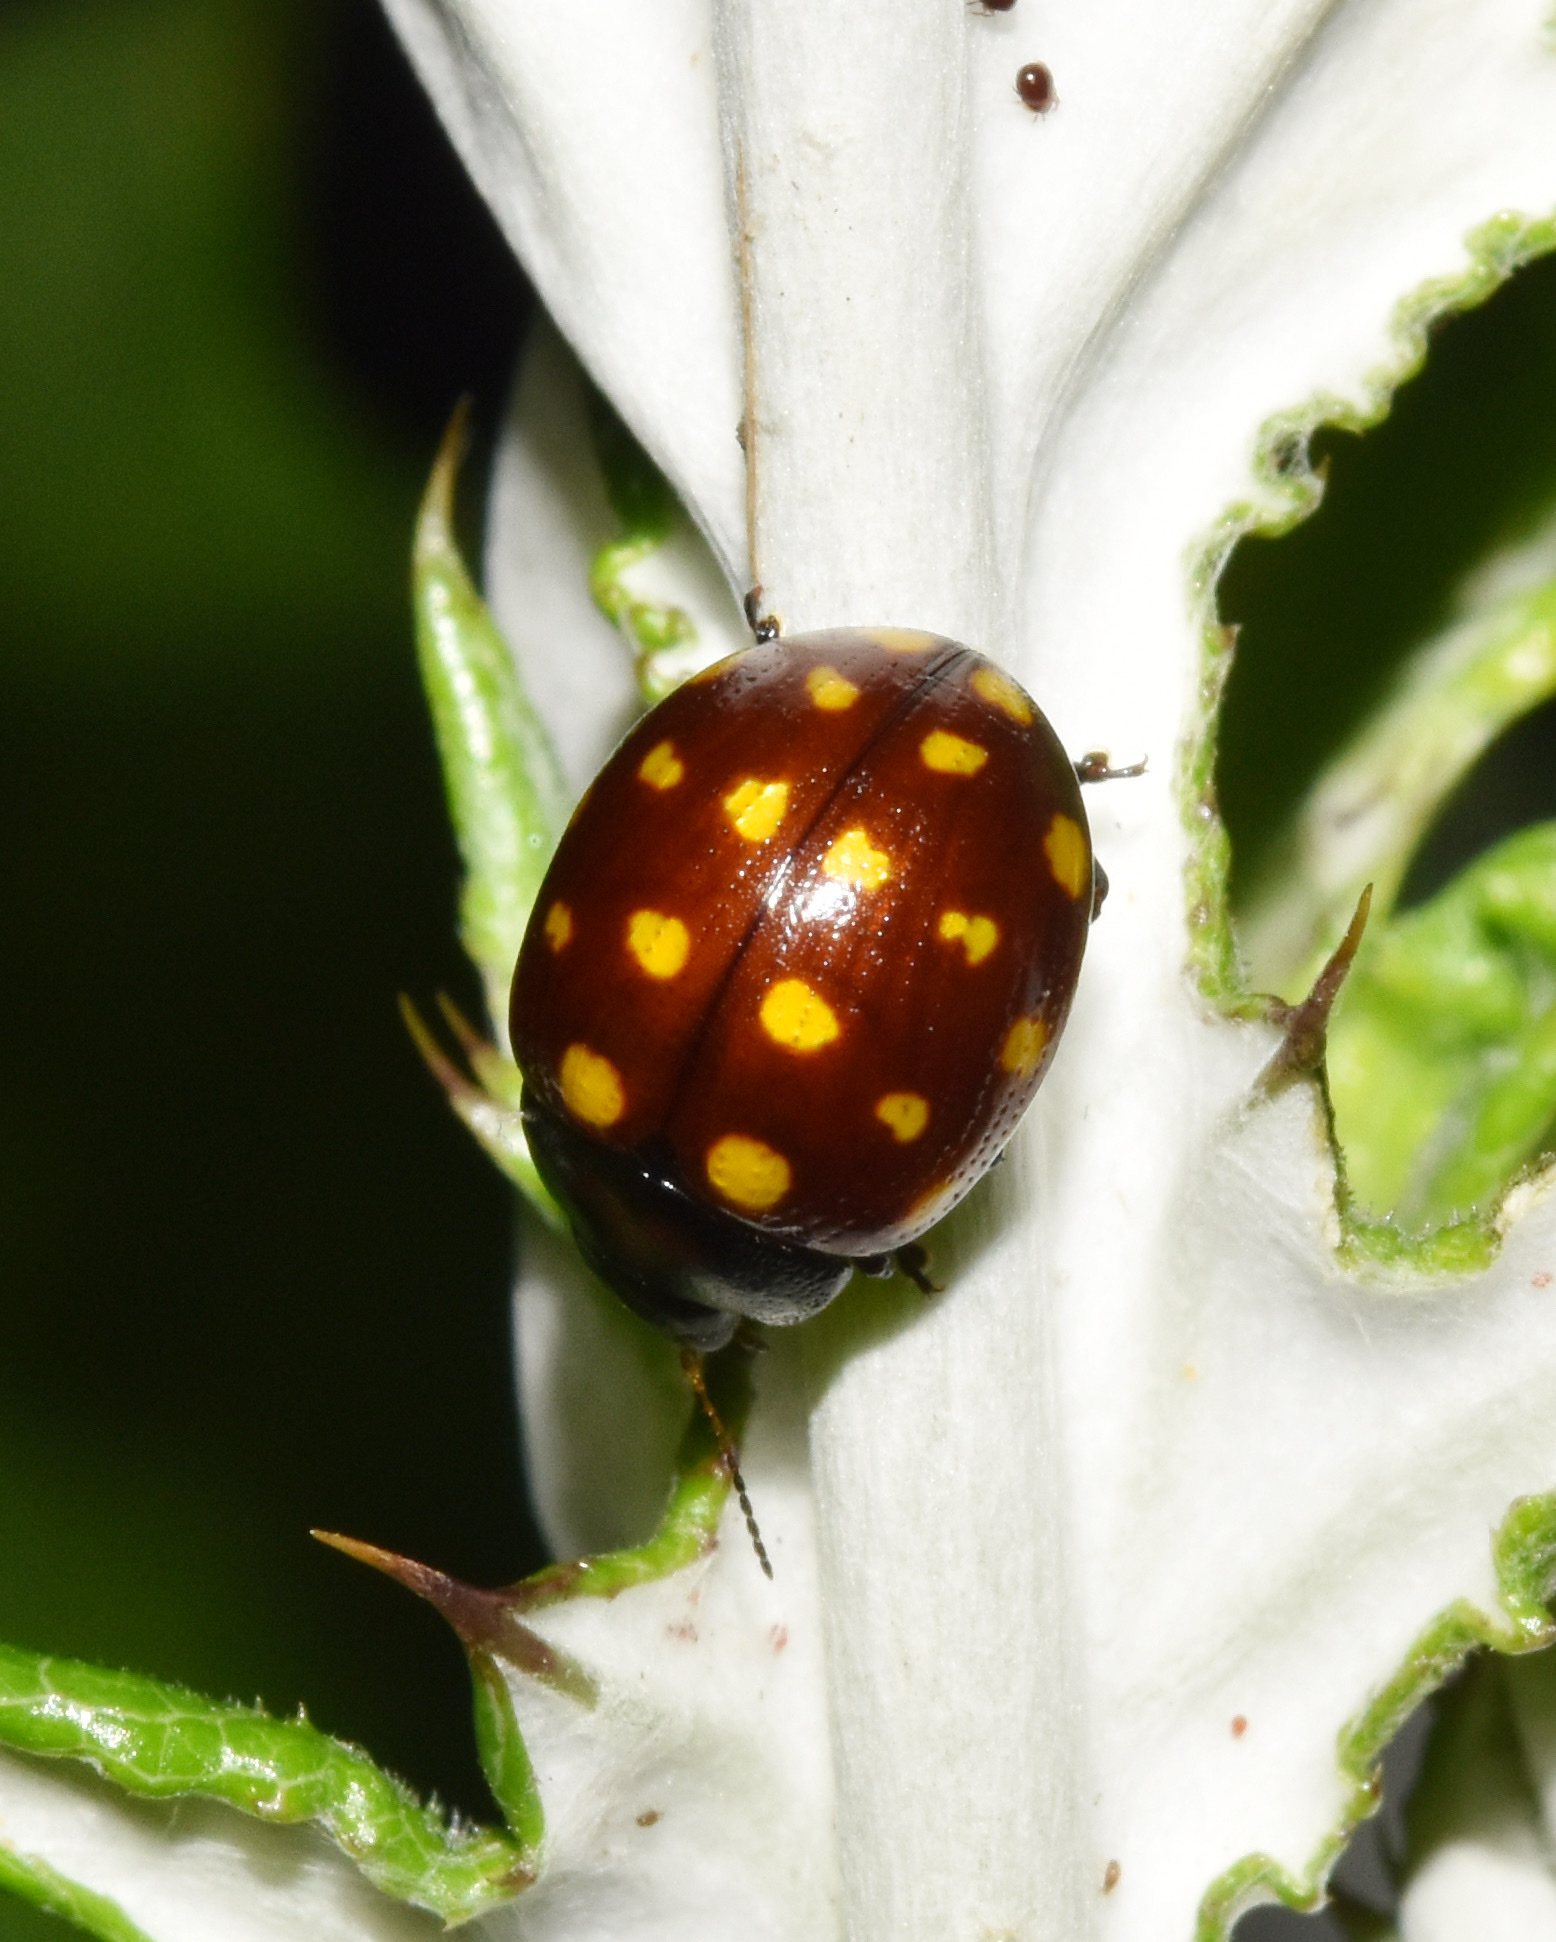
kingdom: Animalia
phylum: Arthropoda
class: Insecta
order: Coleoptera
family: Chrysomelidae
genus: Chrysolina
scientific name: Chrysolina
